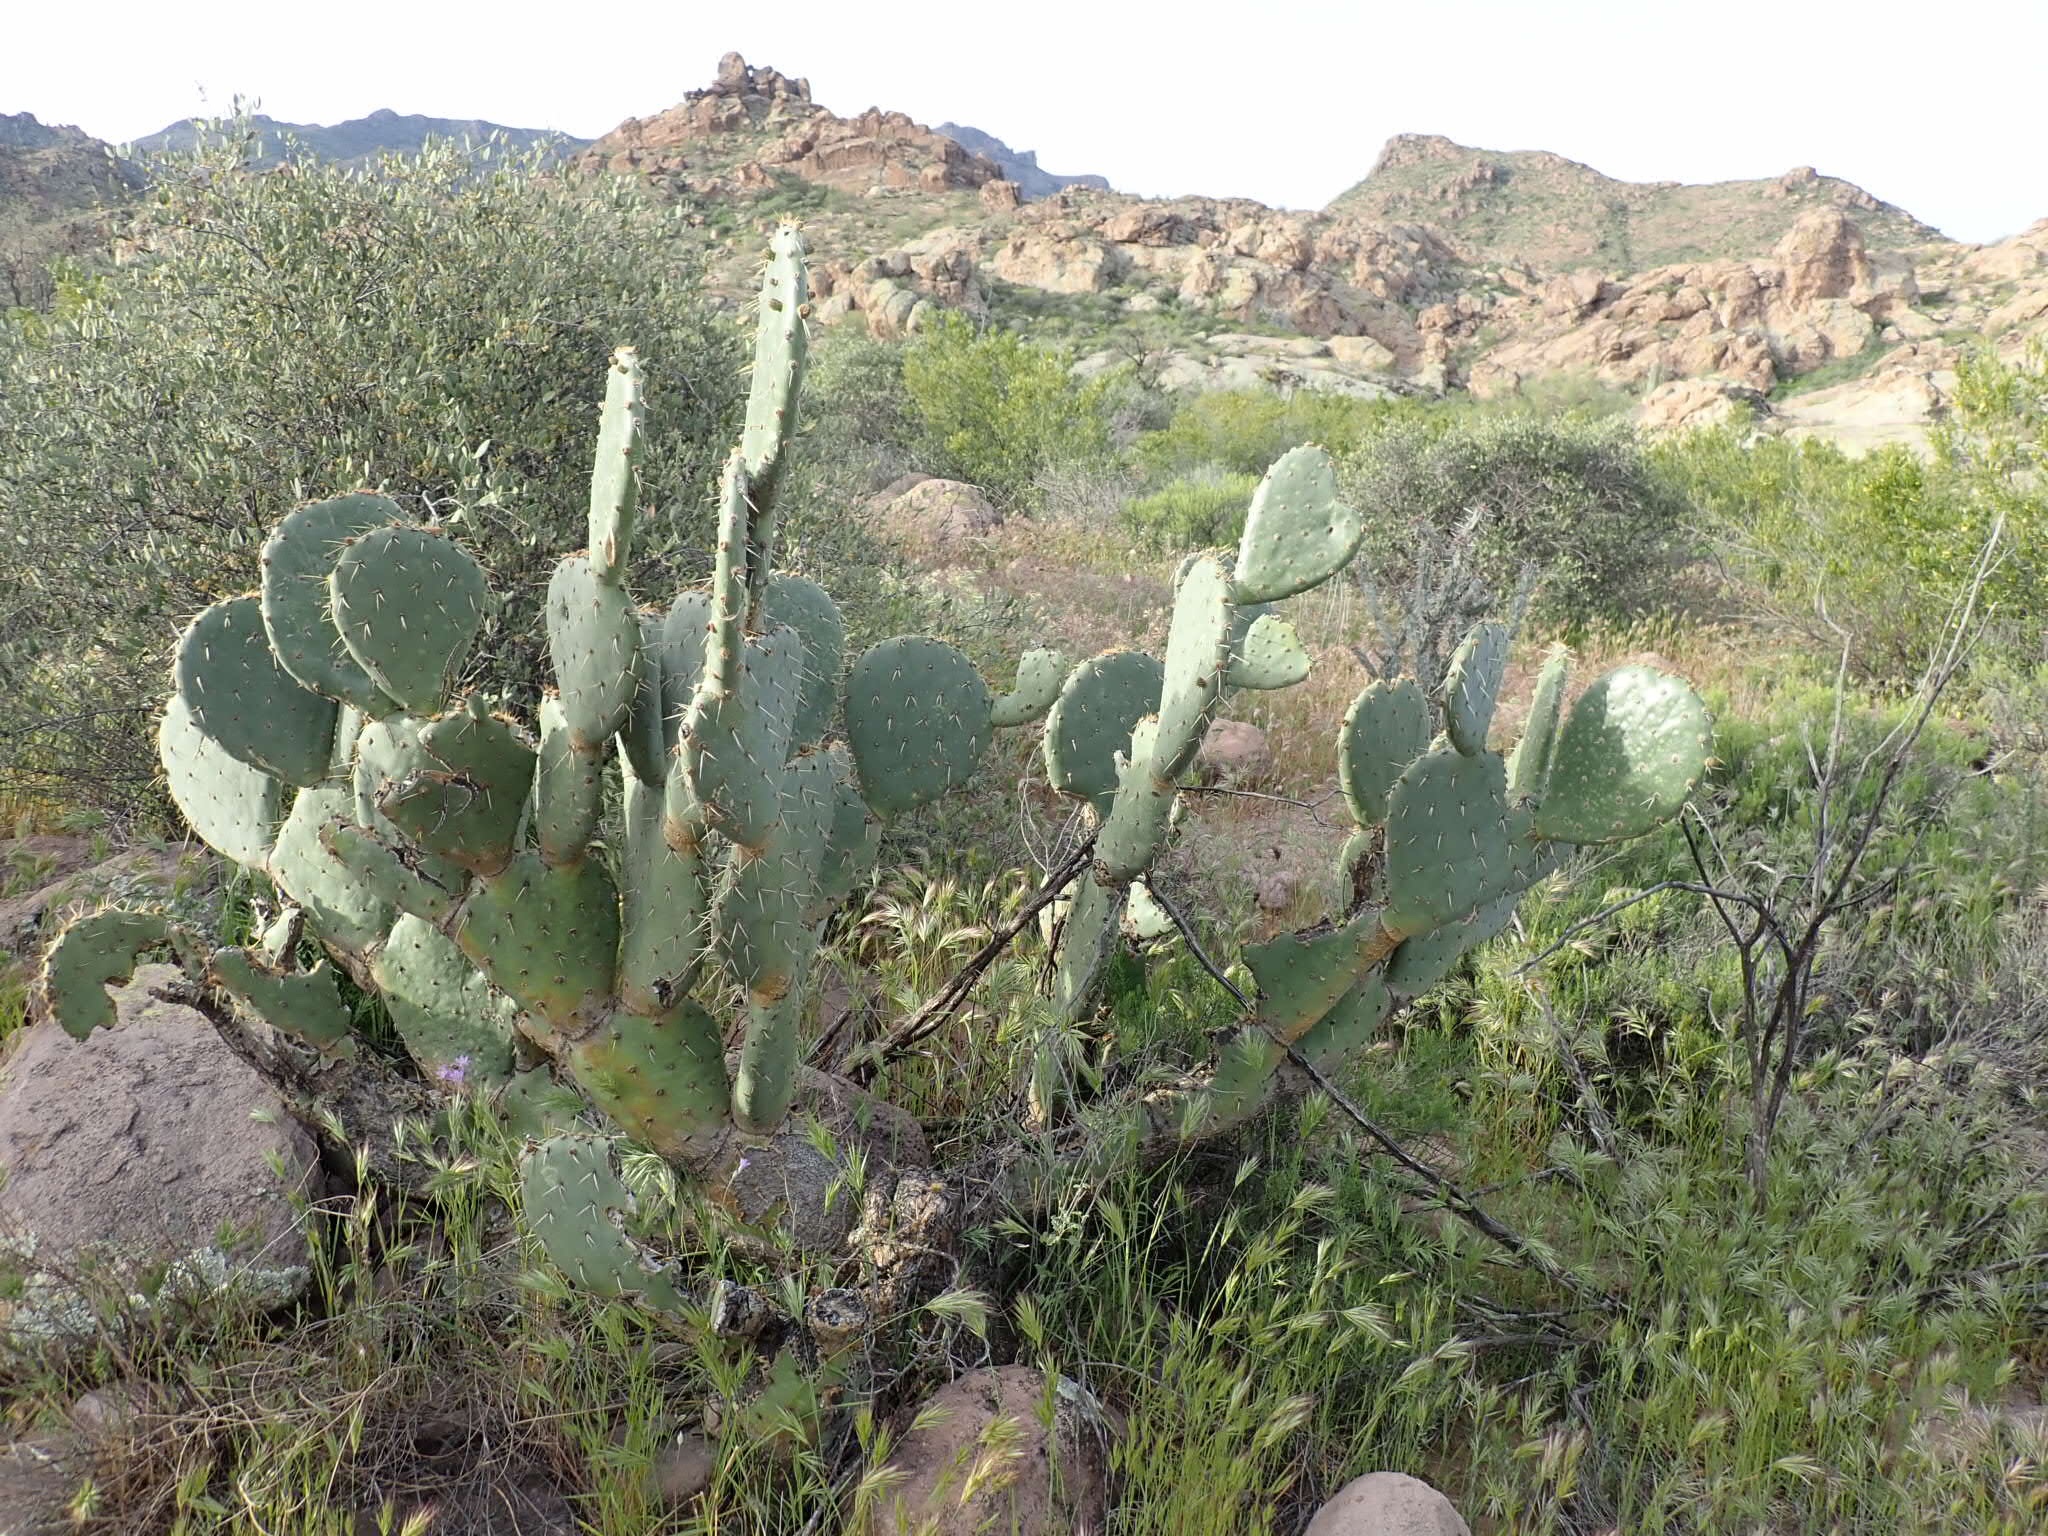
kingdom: Plantae
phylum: Tracheophyta
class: Magnoliopsida
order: Caryophyllales
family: Cactaceae
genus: Opuntia
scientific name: Opuntia engelmannii
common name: Cactus-apple
